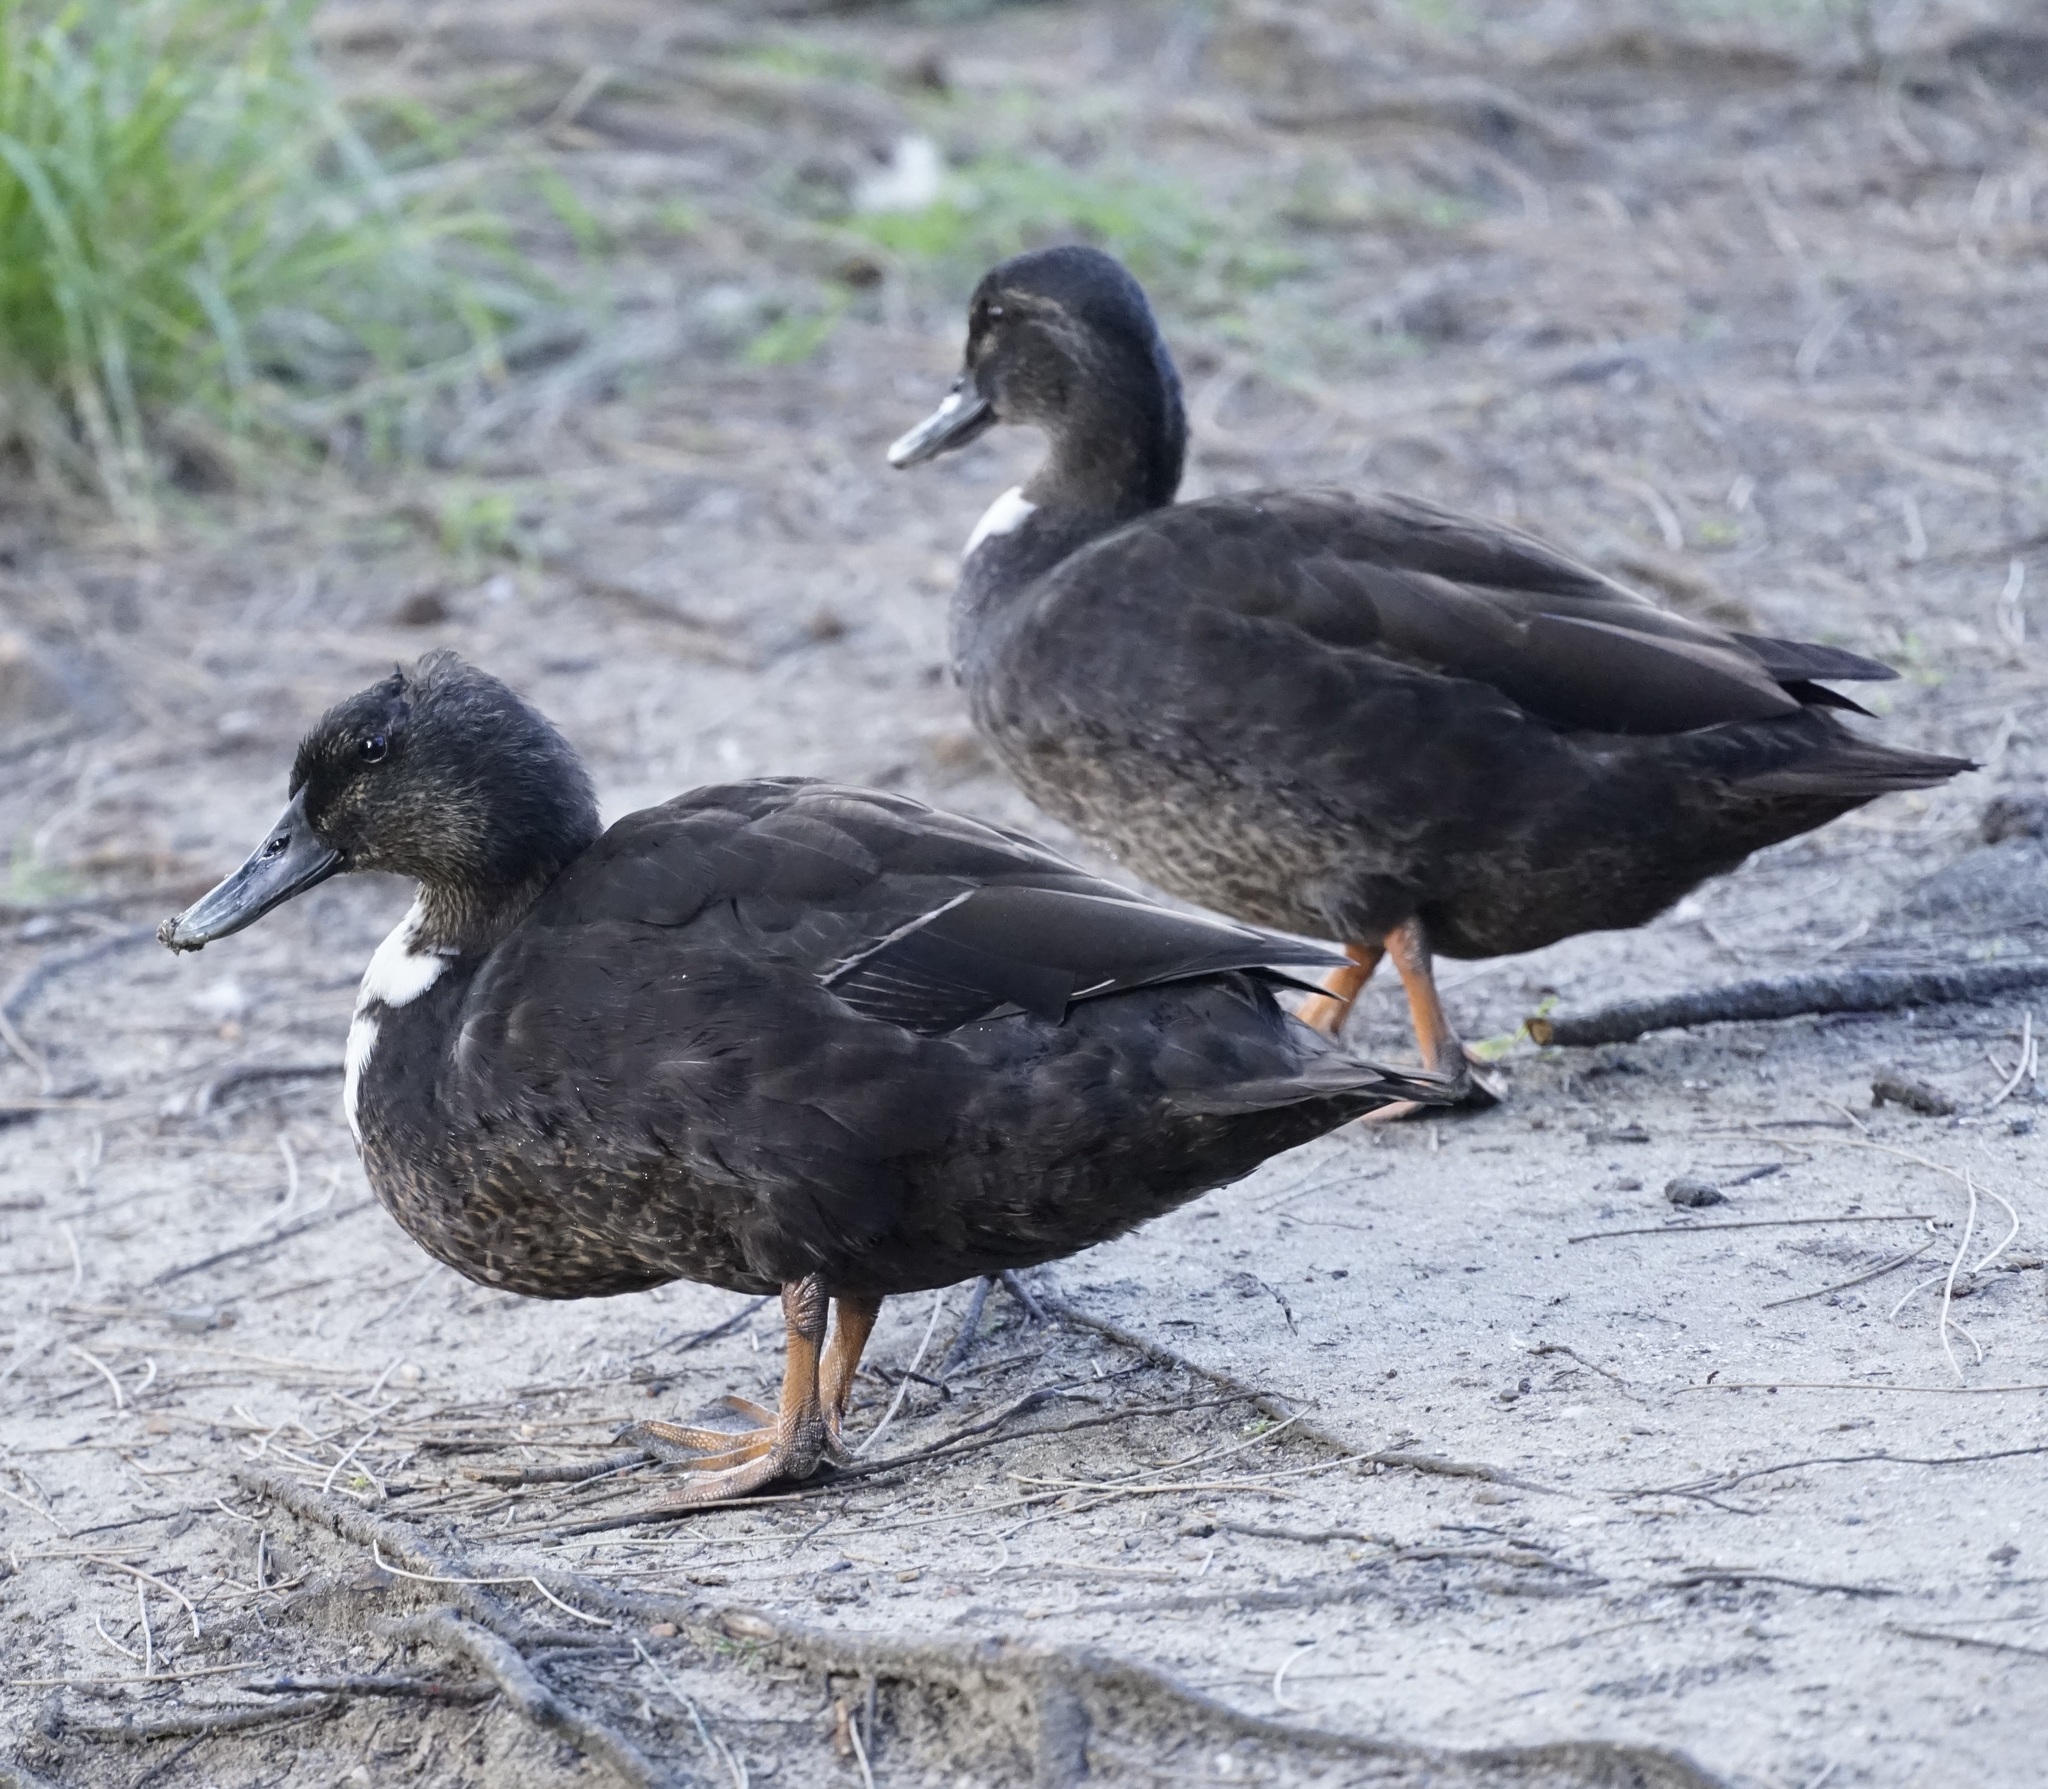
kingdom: Animalia
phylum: Chordata
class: Aves
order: Anseriformes
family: Anatidae
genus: Anas
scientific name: Anas platyrhynchos
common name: Mallard
